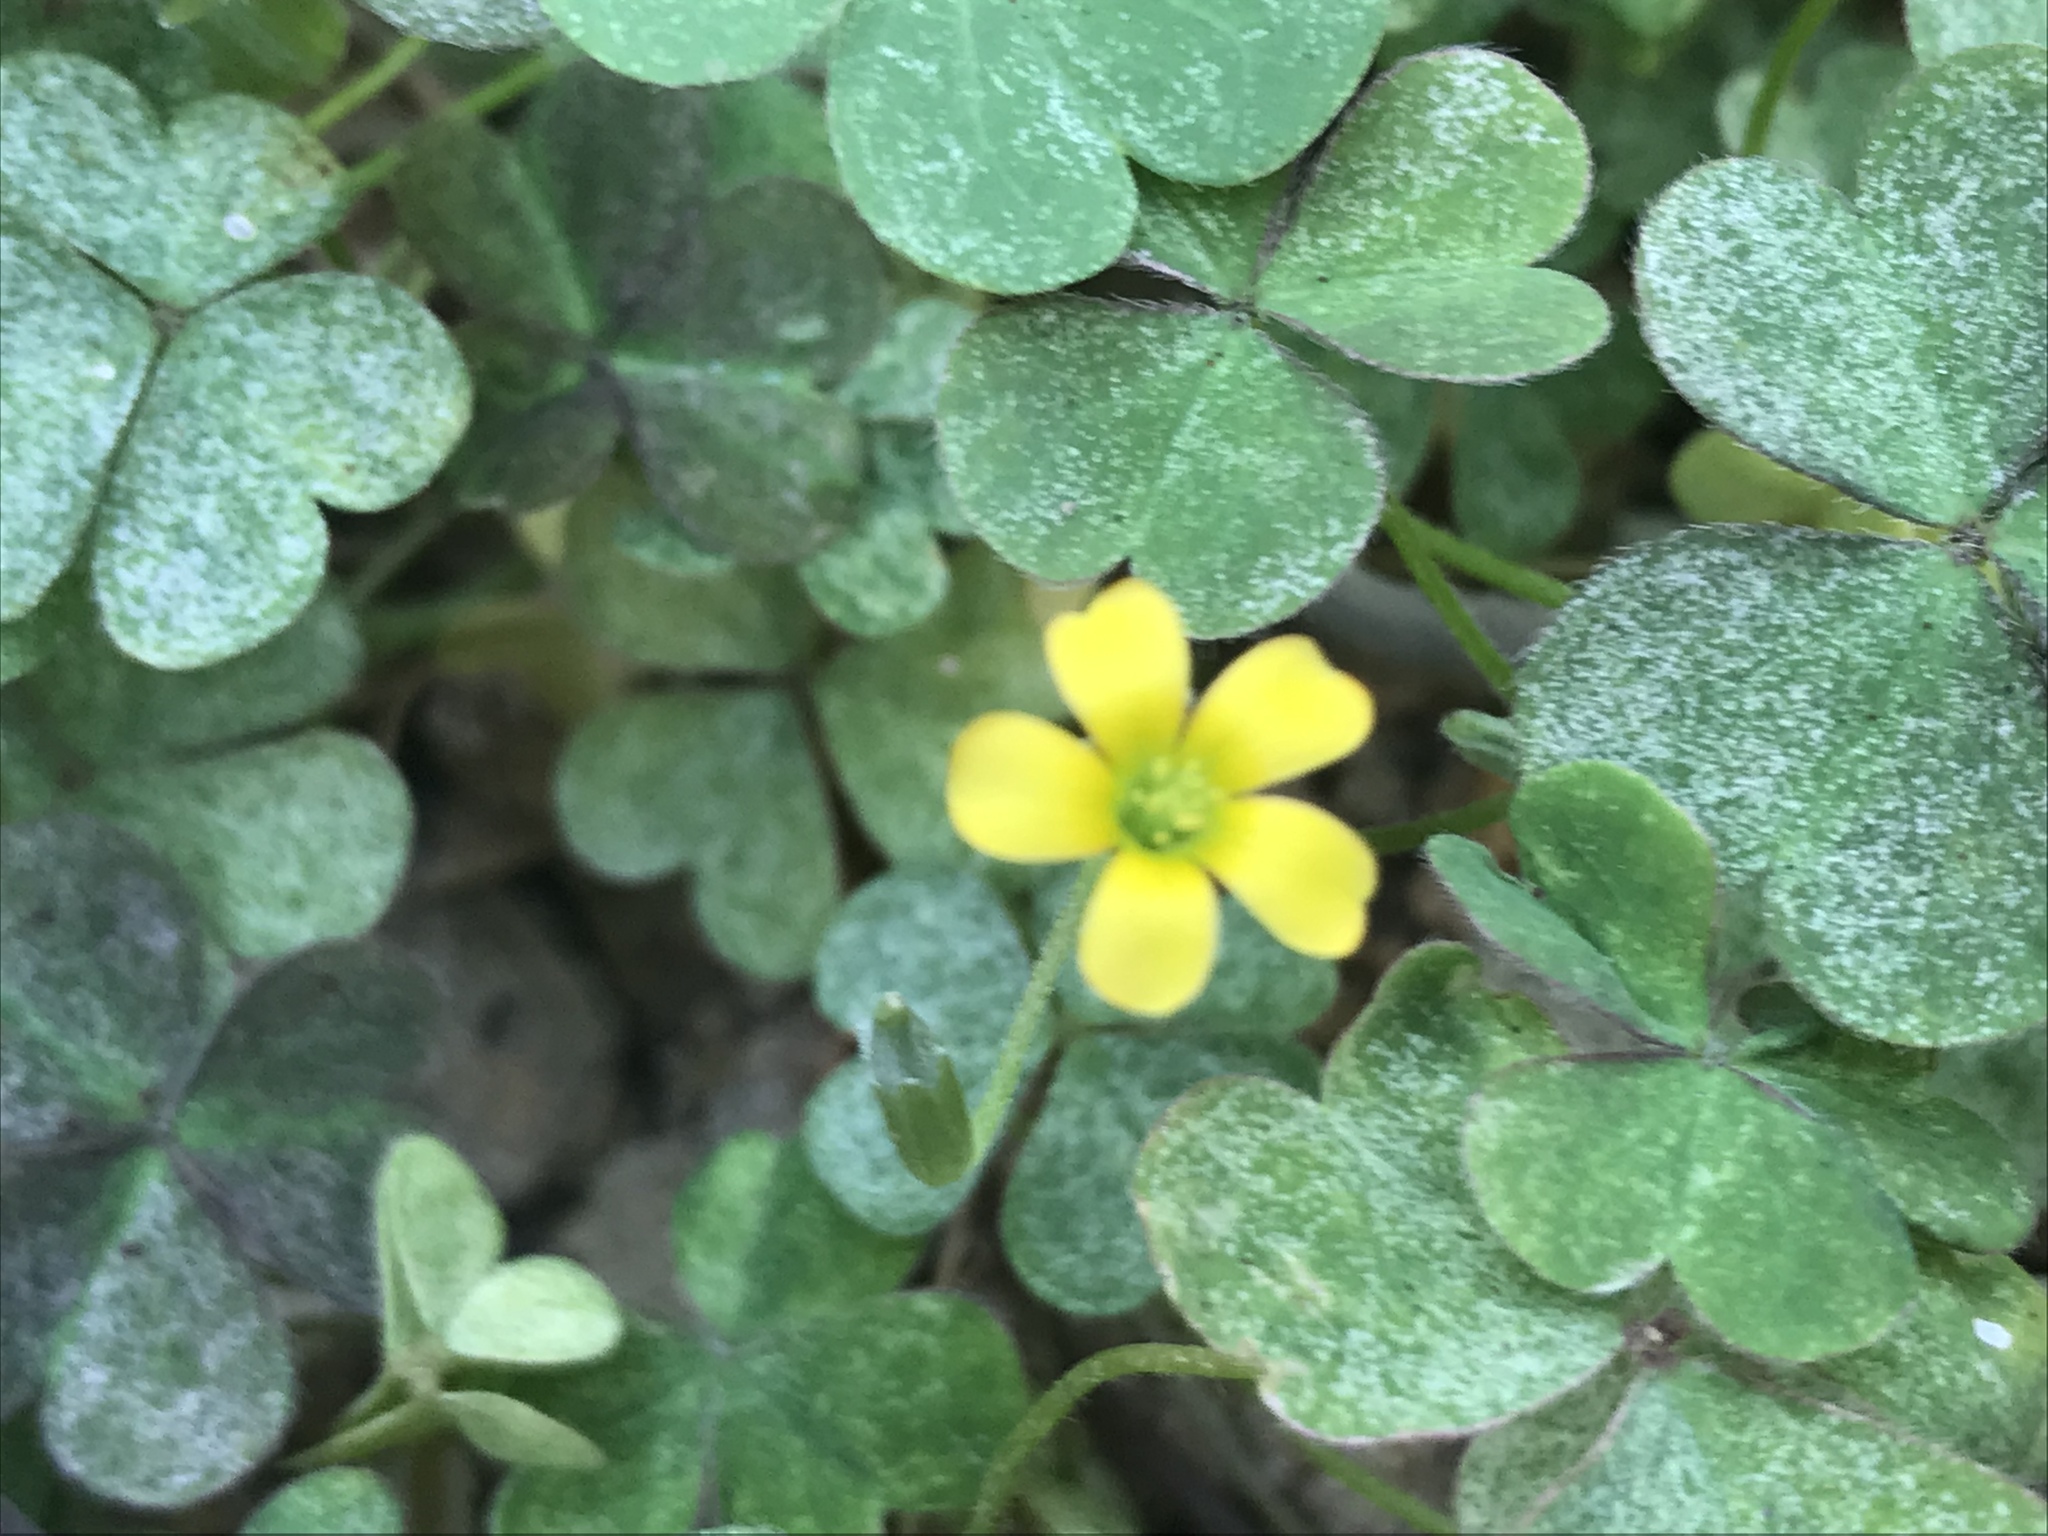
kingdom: Plantae
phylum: Tracheophyta
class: Magnoliopsida
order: Oxalidales
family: Oxalidaceae
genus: Oxalis
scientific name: Oxalis corniculata
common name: Procumbent yellow-sorrel
